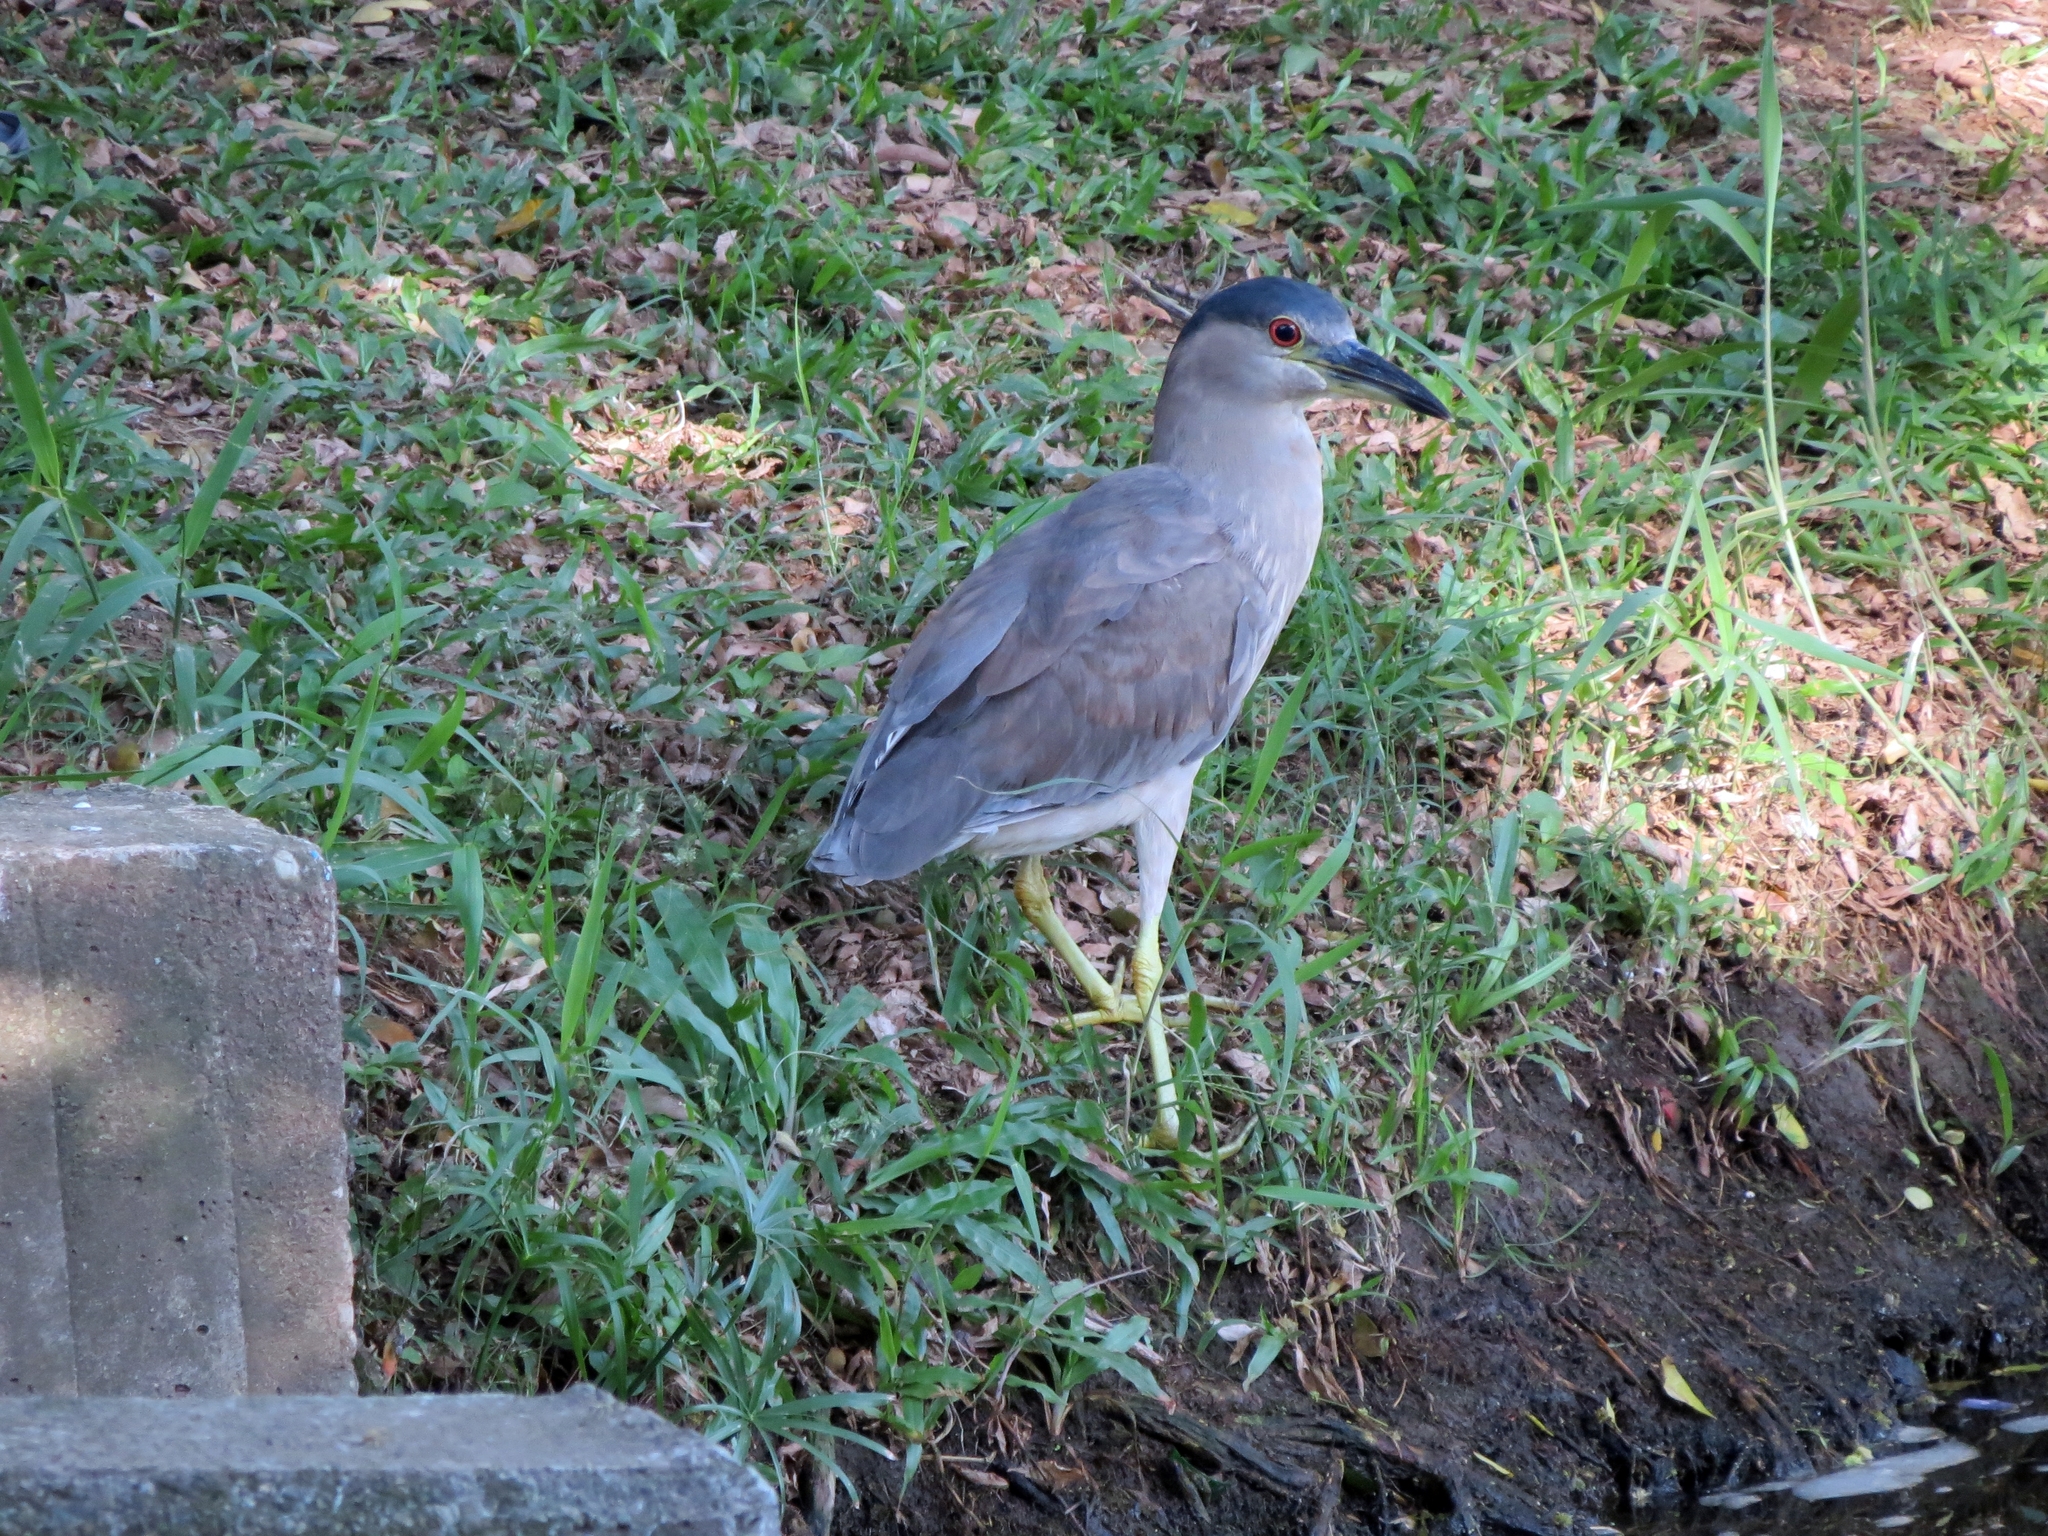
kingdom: Animalia
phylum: Chordata
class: Aves
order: Pelecaniformes
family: Ardeidae
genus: Nycticorax
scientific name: Nycticorax nycticorax
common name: Black-crowned night heron
